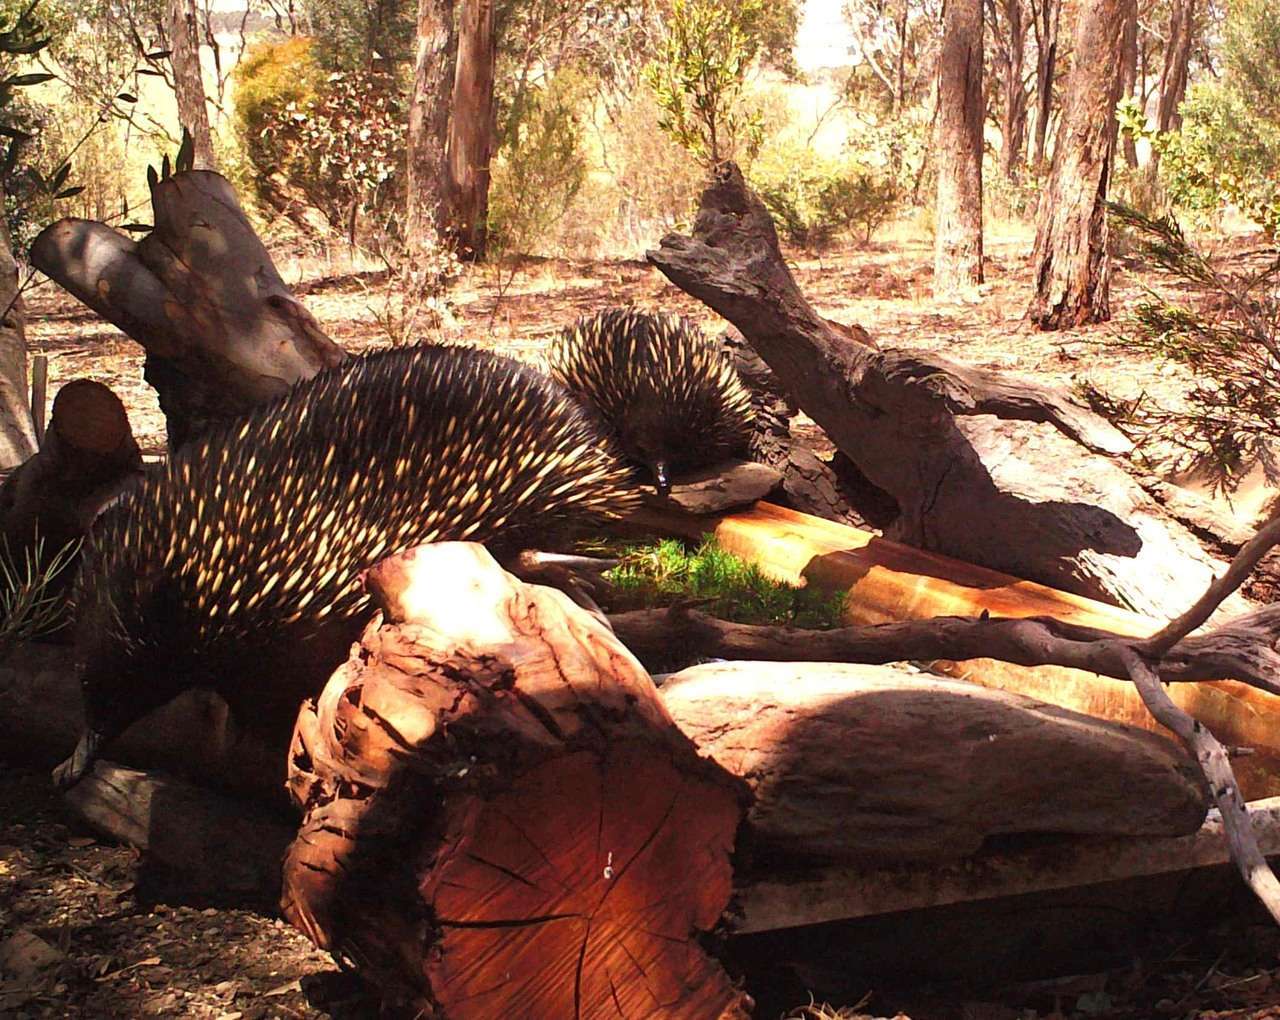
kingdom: Animalia
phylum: Chordata
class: Mammalia
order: Monotremata
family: Tachyglossidae
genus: Tachyglossus
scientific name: Tachyglossus aculeatus
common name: Short-beaked echidna
